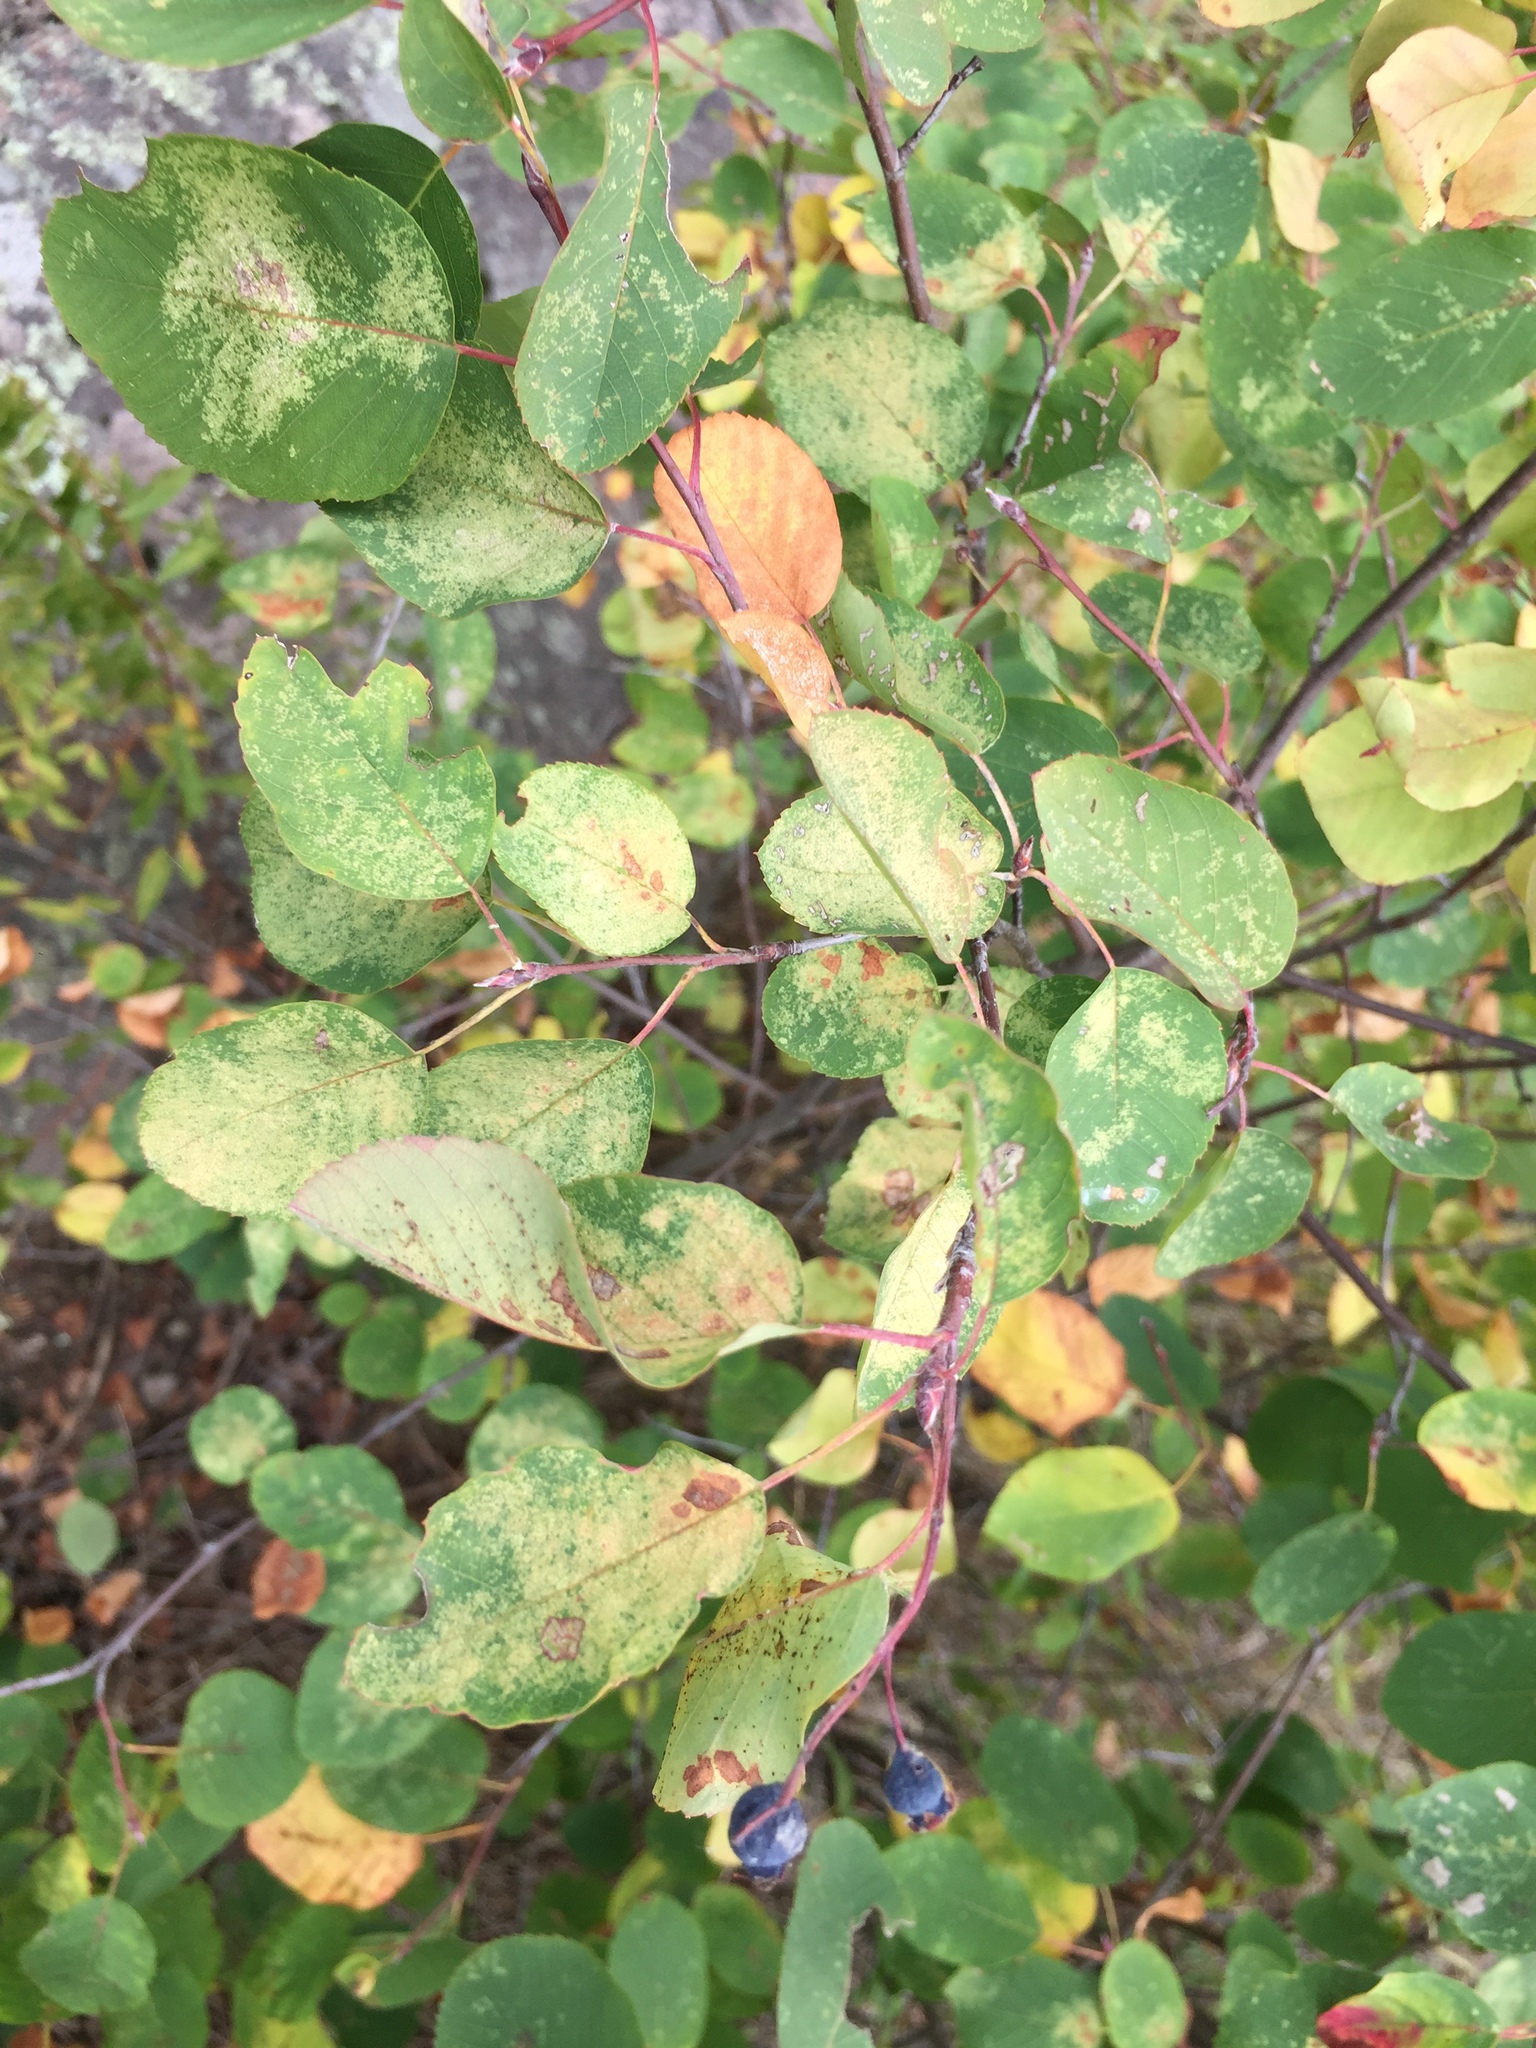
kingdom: Plantae
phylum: Tracheophyta
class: Magnoliopsida
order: Rosales
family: Rosaceae
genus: Amelanchier
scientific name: Amelanchier alnifolia
